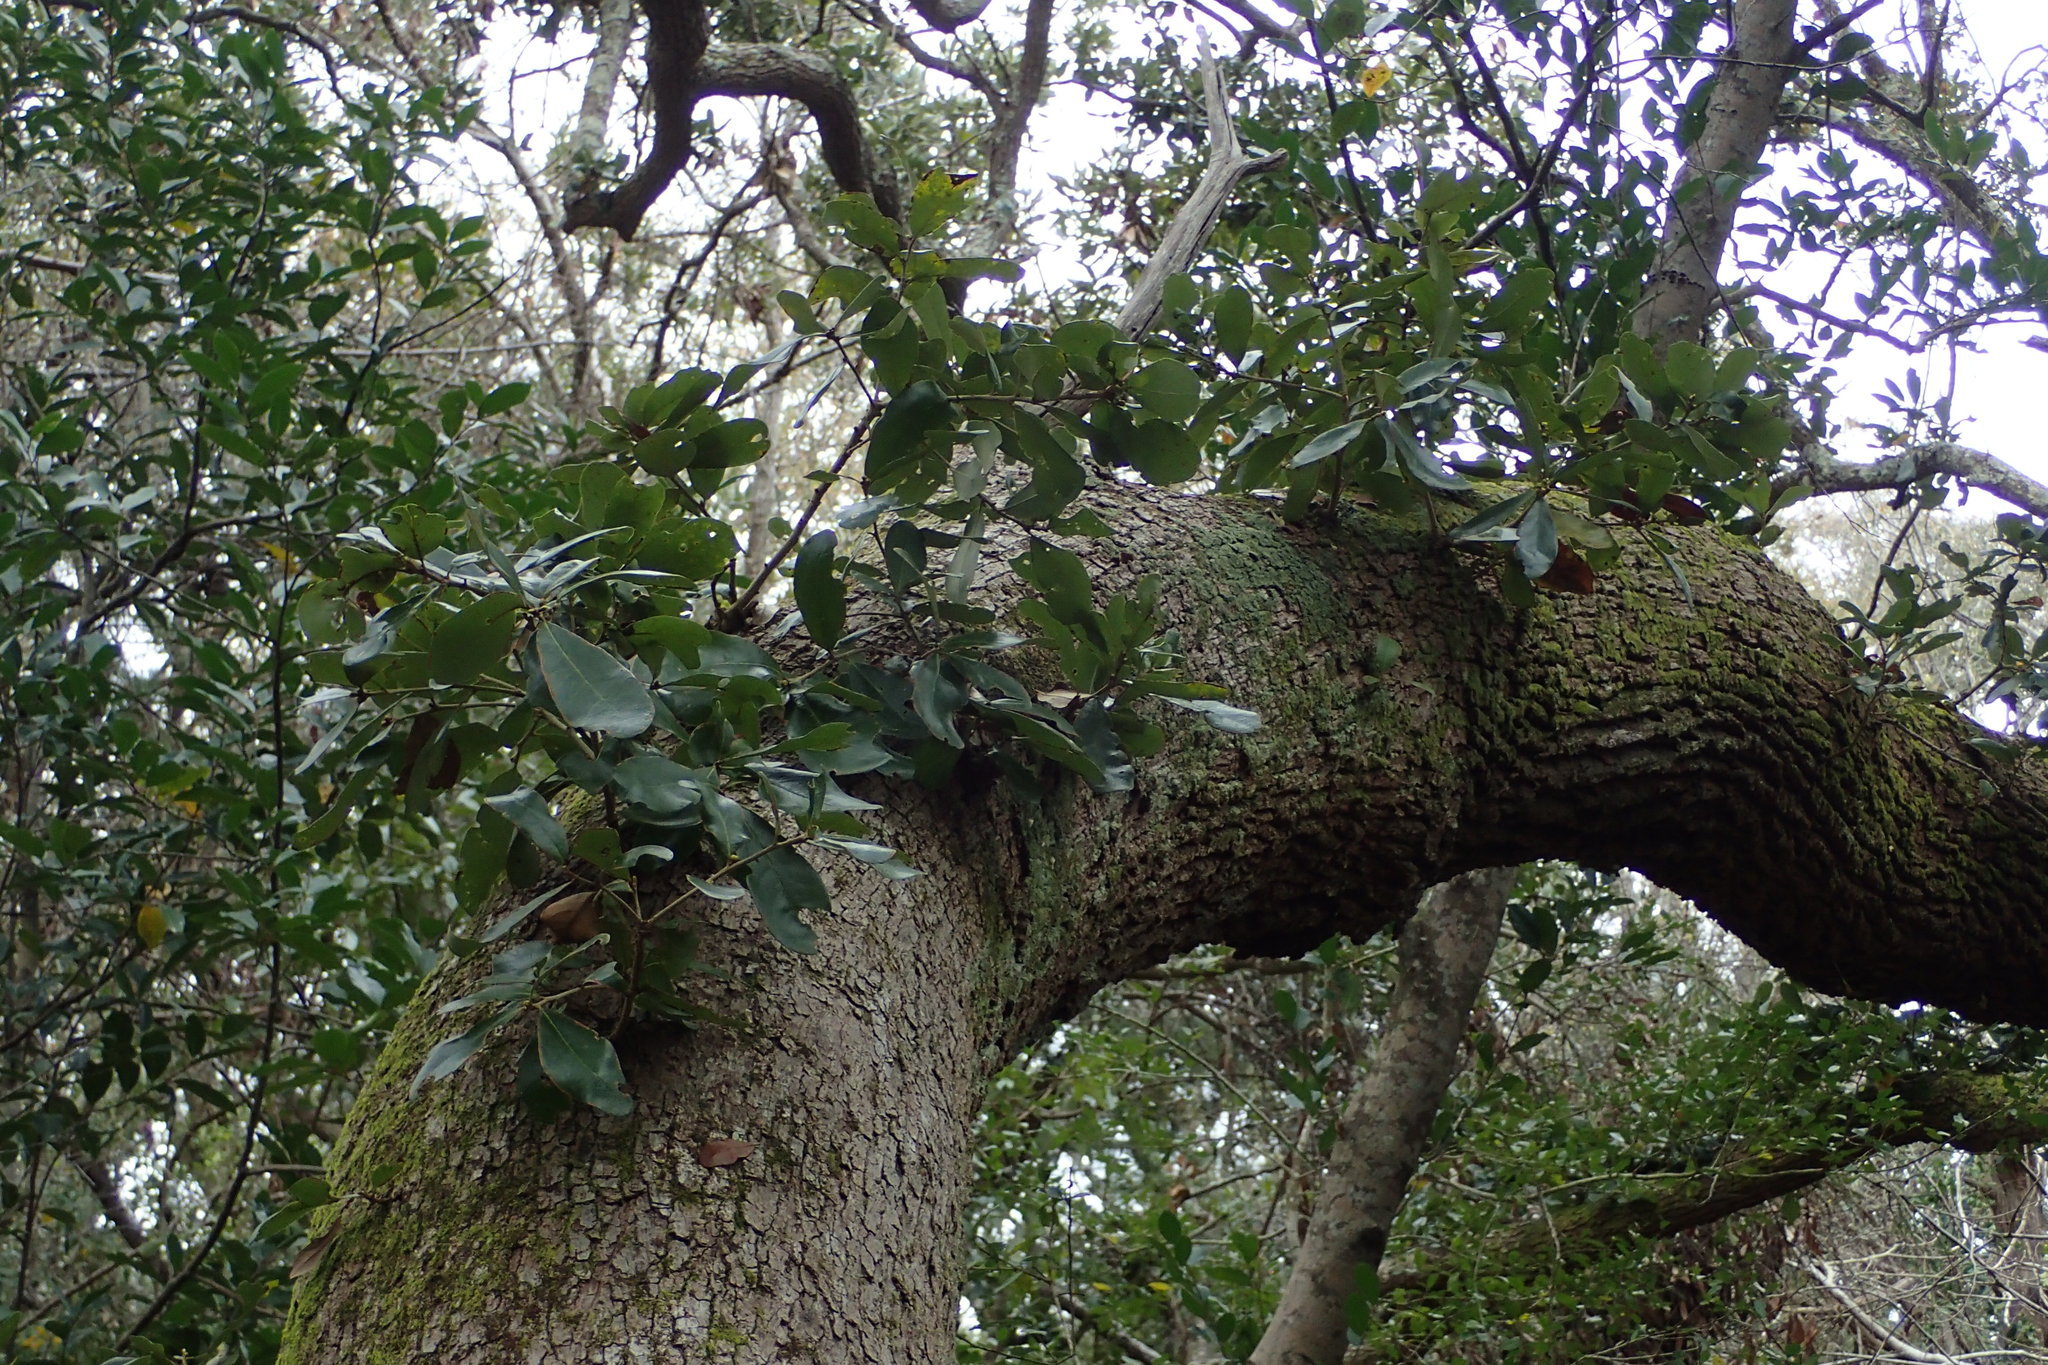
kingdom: Plantae
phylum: Tracheophyta
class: Magnoliopsida
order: Fagales
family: Fagaceae
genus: Quercus
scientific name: Quercus virginiana
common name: Southern live oak
